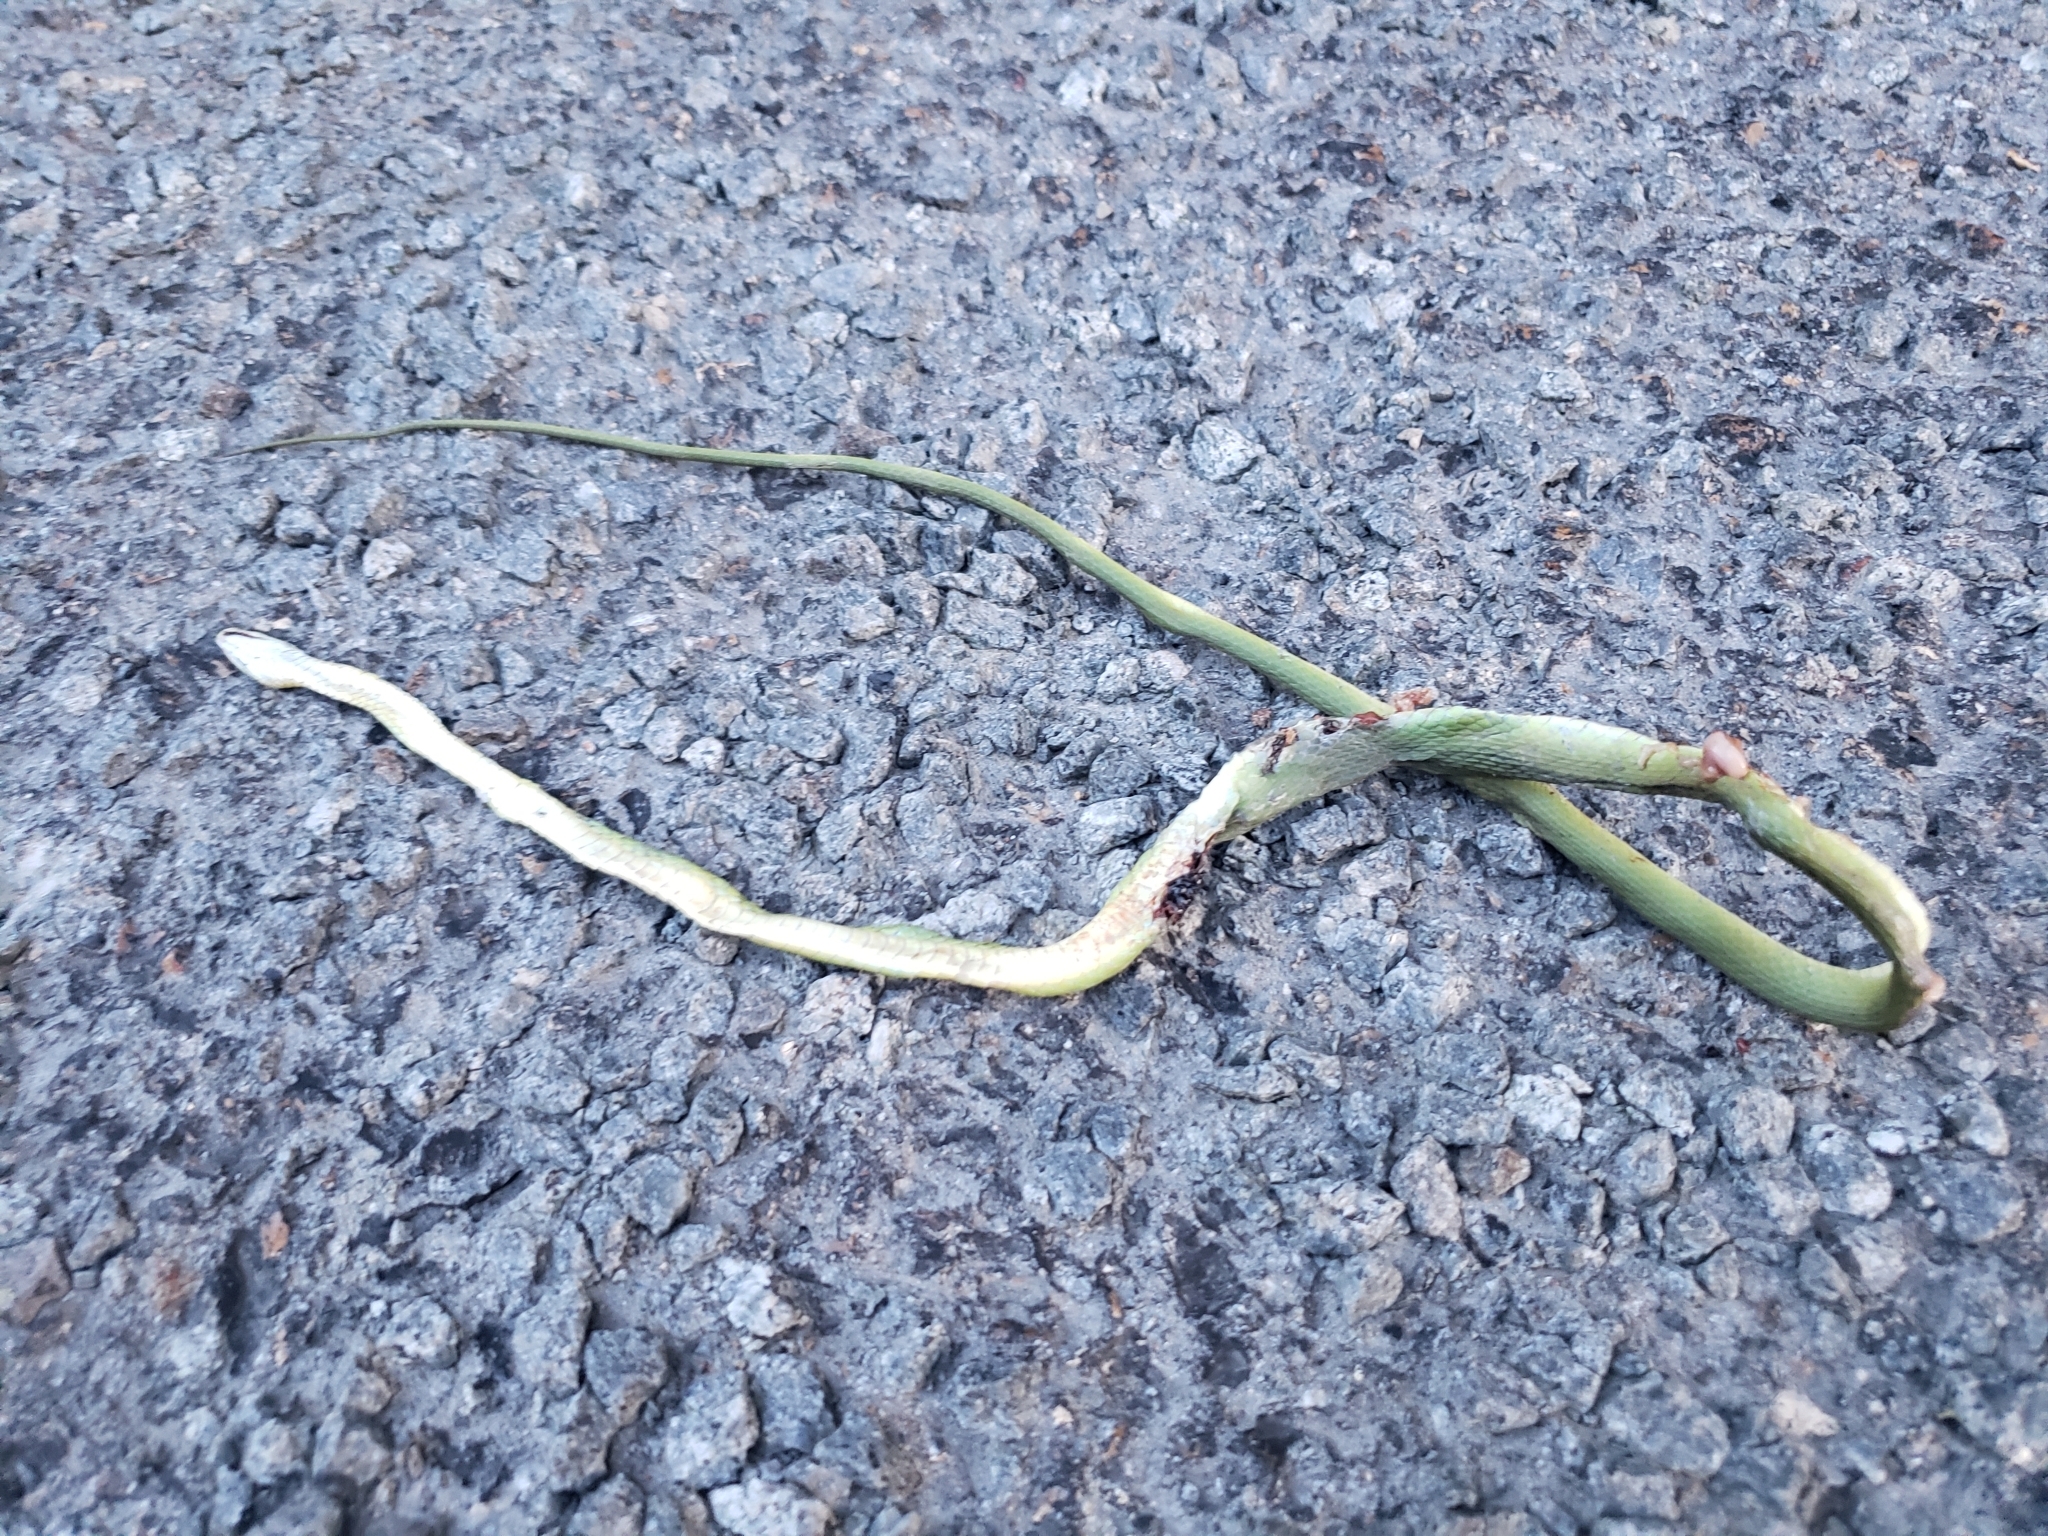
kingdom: Animalia
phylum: Chordata
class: Squamata
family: Colubridae
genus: Opheodrys
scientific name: Opheodrys aestivus
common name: Rough greensnake
